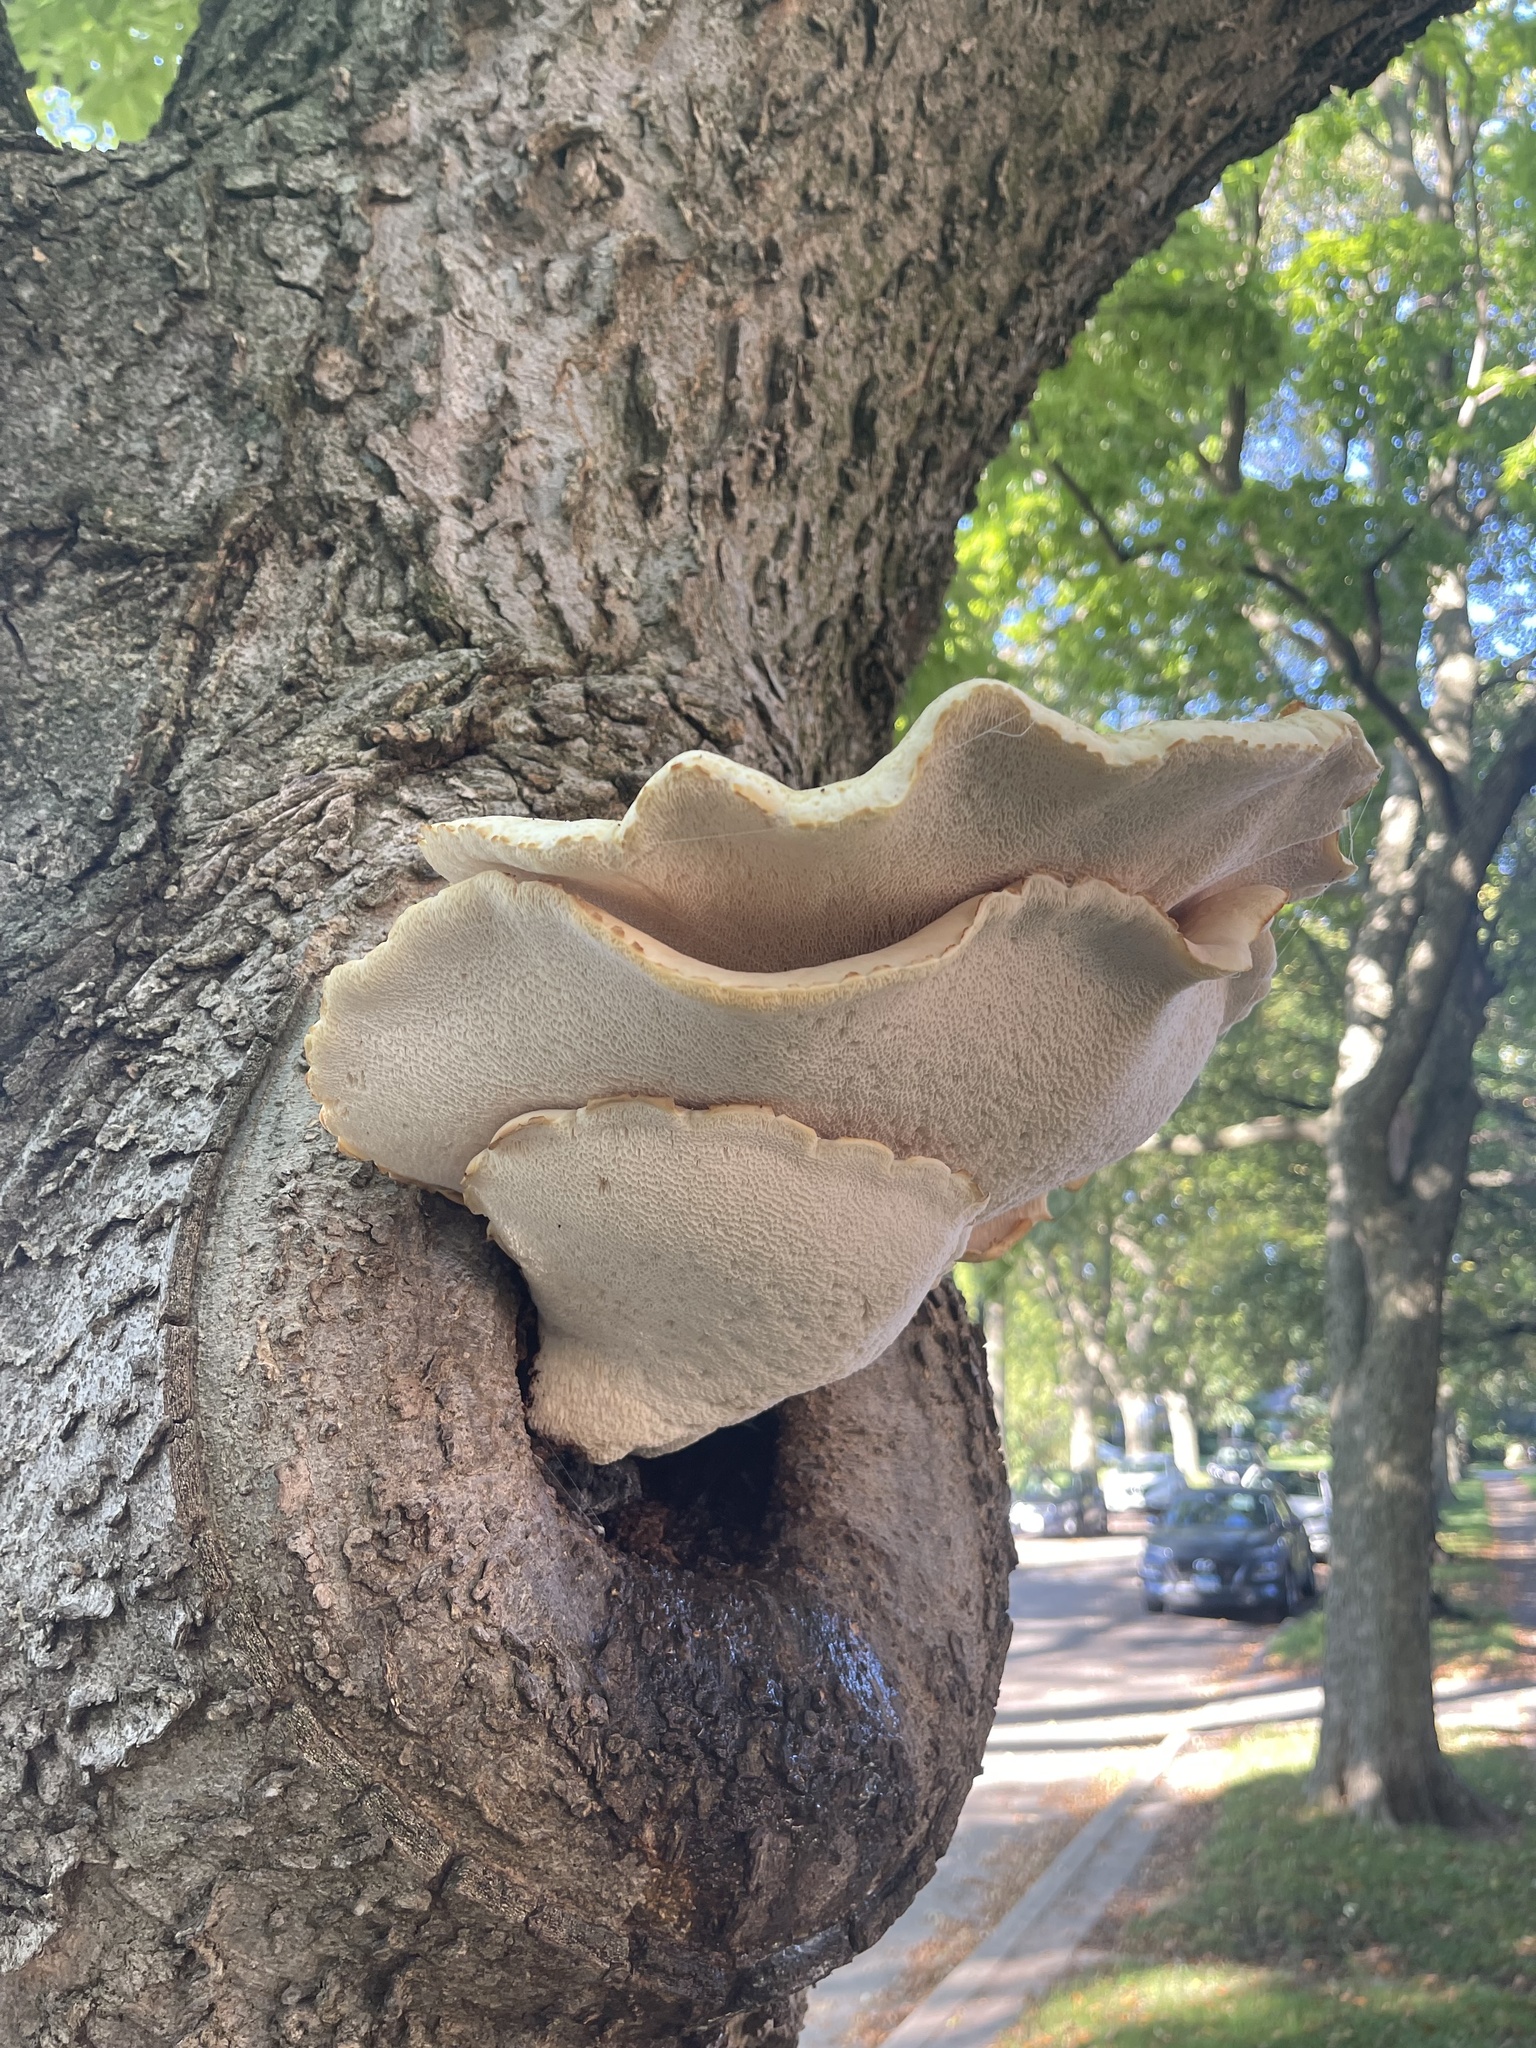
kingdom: Fungi
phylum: Basidiomycota
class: Agaricomycetes
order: Polyporales
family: Polyporaceae
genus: Cerioporus
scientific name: Cerioporus squamosus
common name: Dryad's saddle
